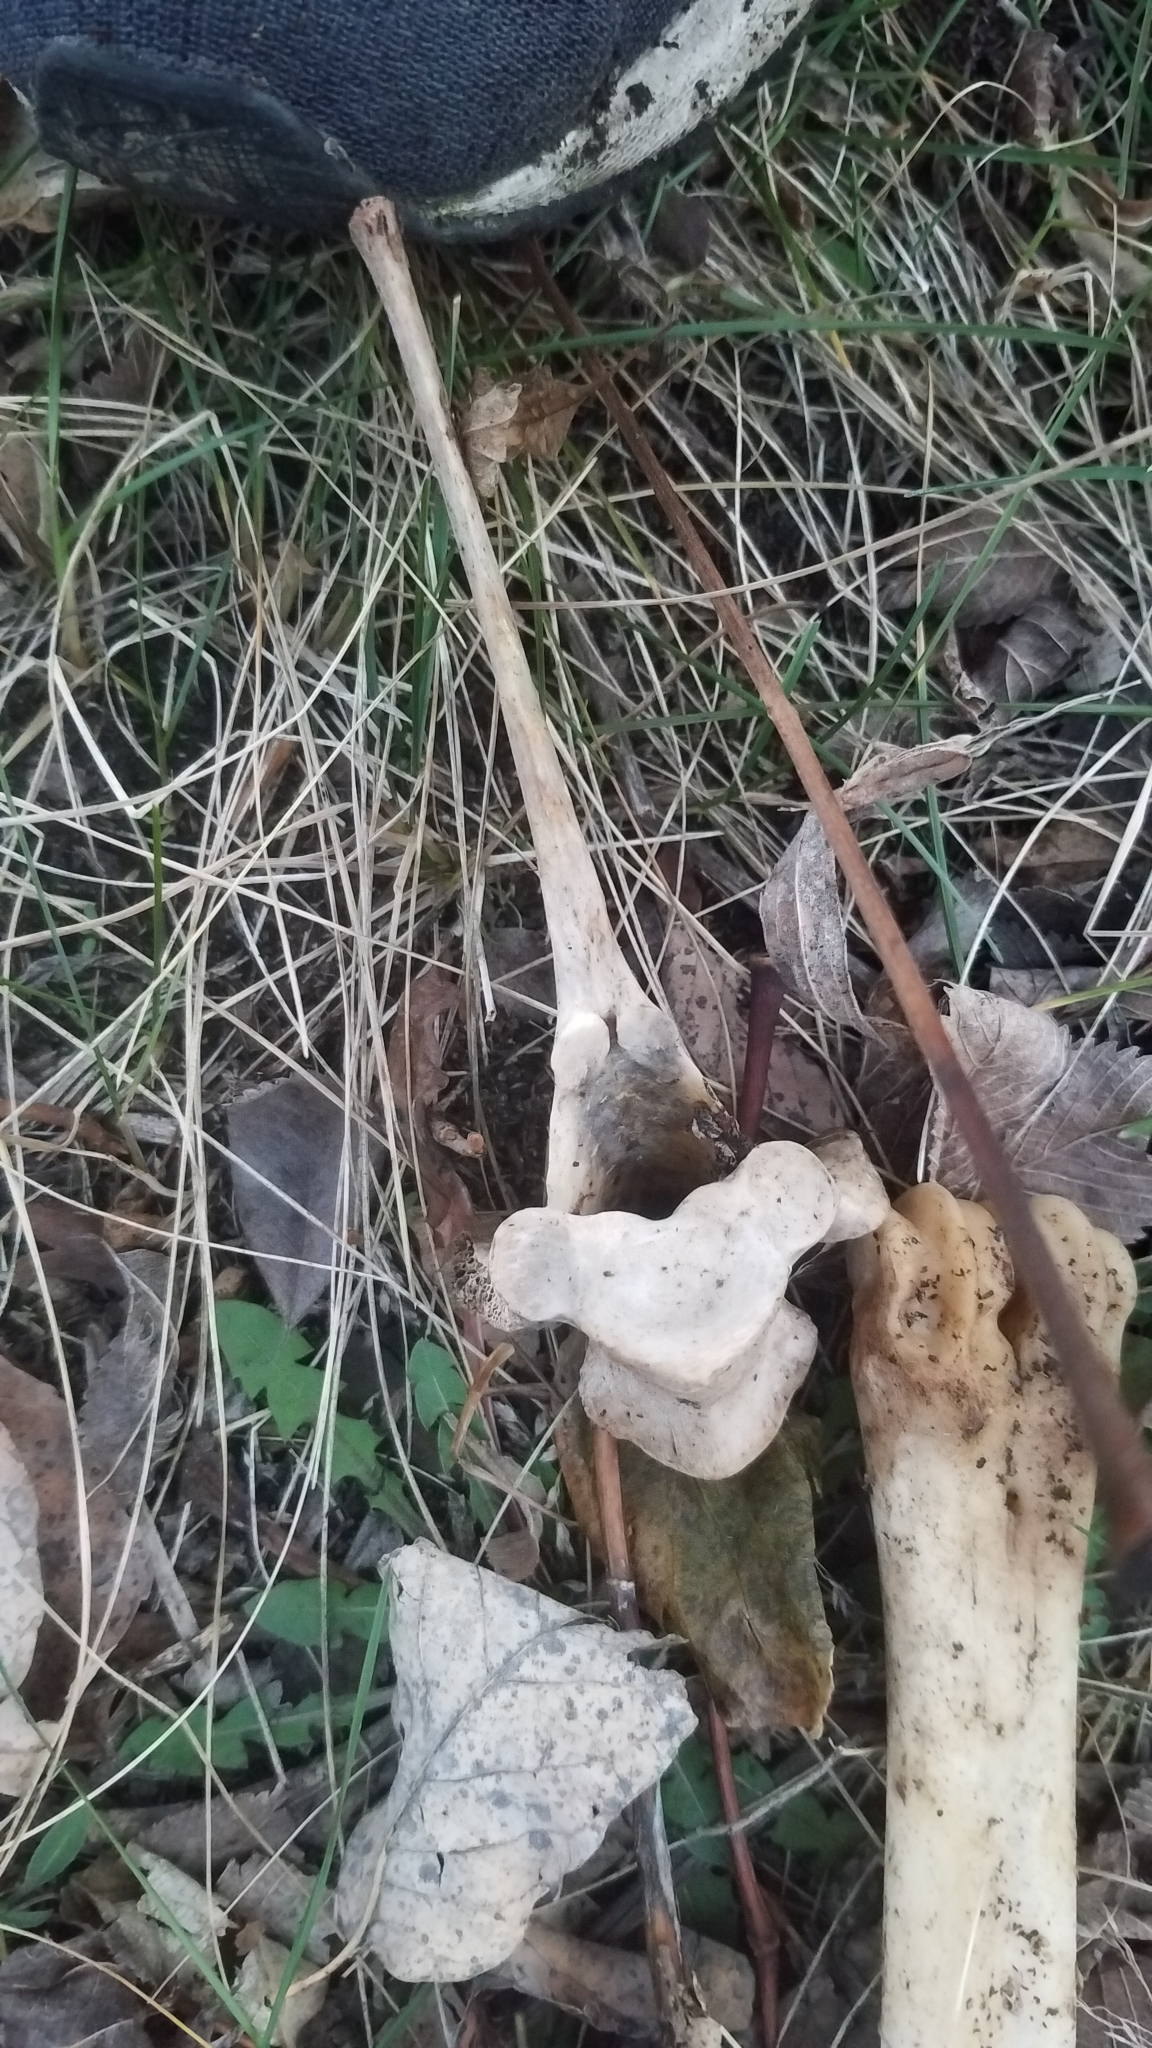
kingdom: Animalia
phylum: Chordata
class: Mammalia
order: Artiodactyla
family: Cervidae
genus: Odocoileus
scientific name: Odocoileus virginianus
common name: White-tailed deer
